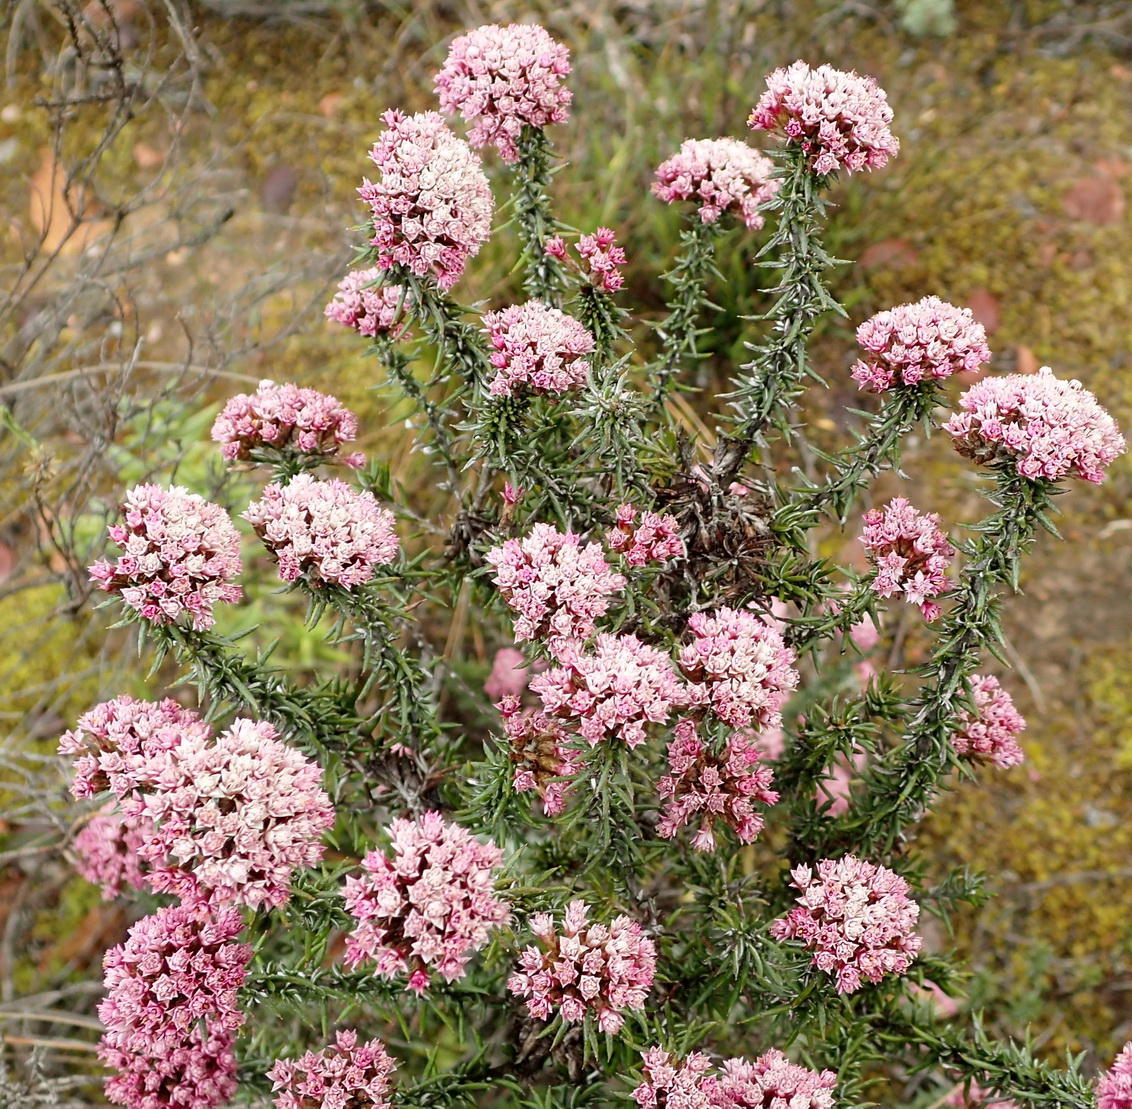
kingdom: Plantae
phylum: Tracheophyta
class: Magnoliopsida
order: Asterales
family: Asteraceae
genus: Metalasia
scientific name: Metalasia massonii
